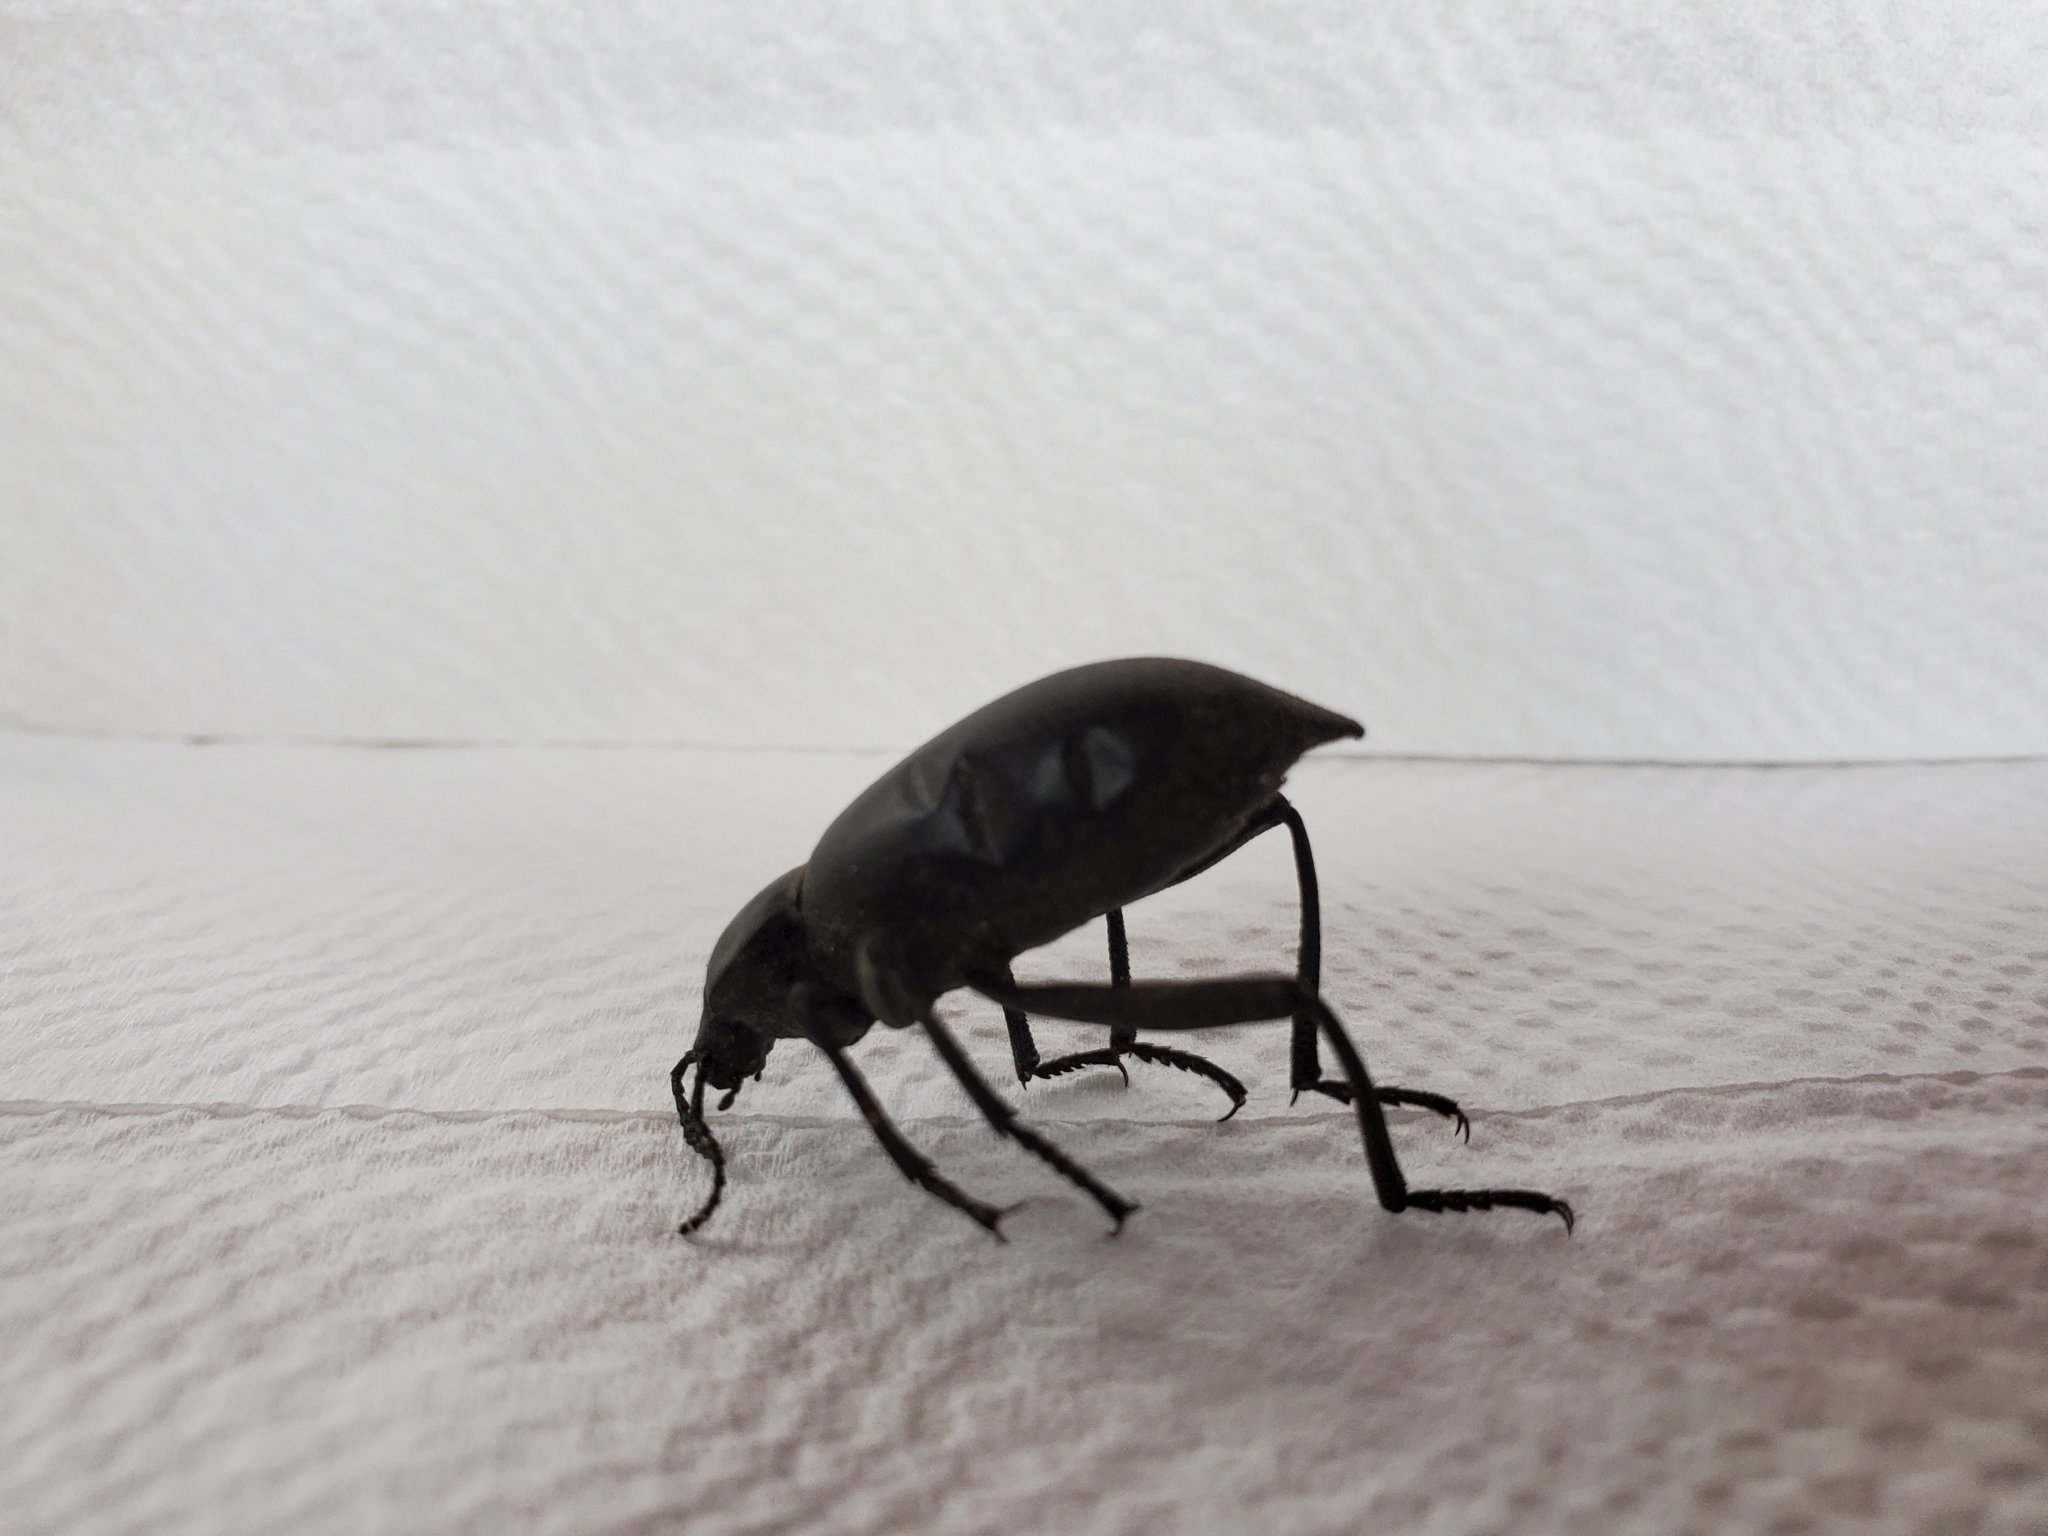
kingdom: Animalia
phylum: Arthropoda
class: Insecta
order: Coleoptera
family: Tenebrionidae
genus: Eleodes
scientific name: Eleodes acuticauda
